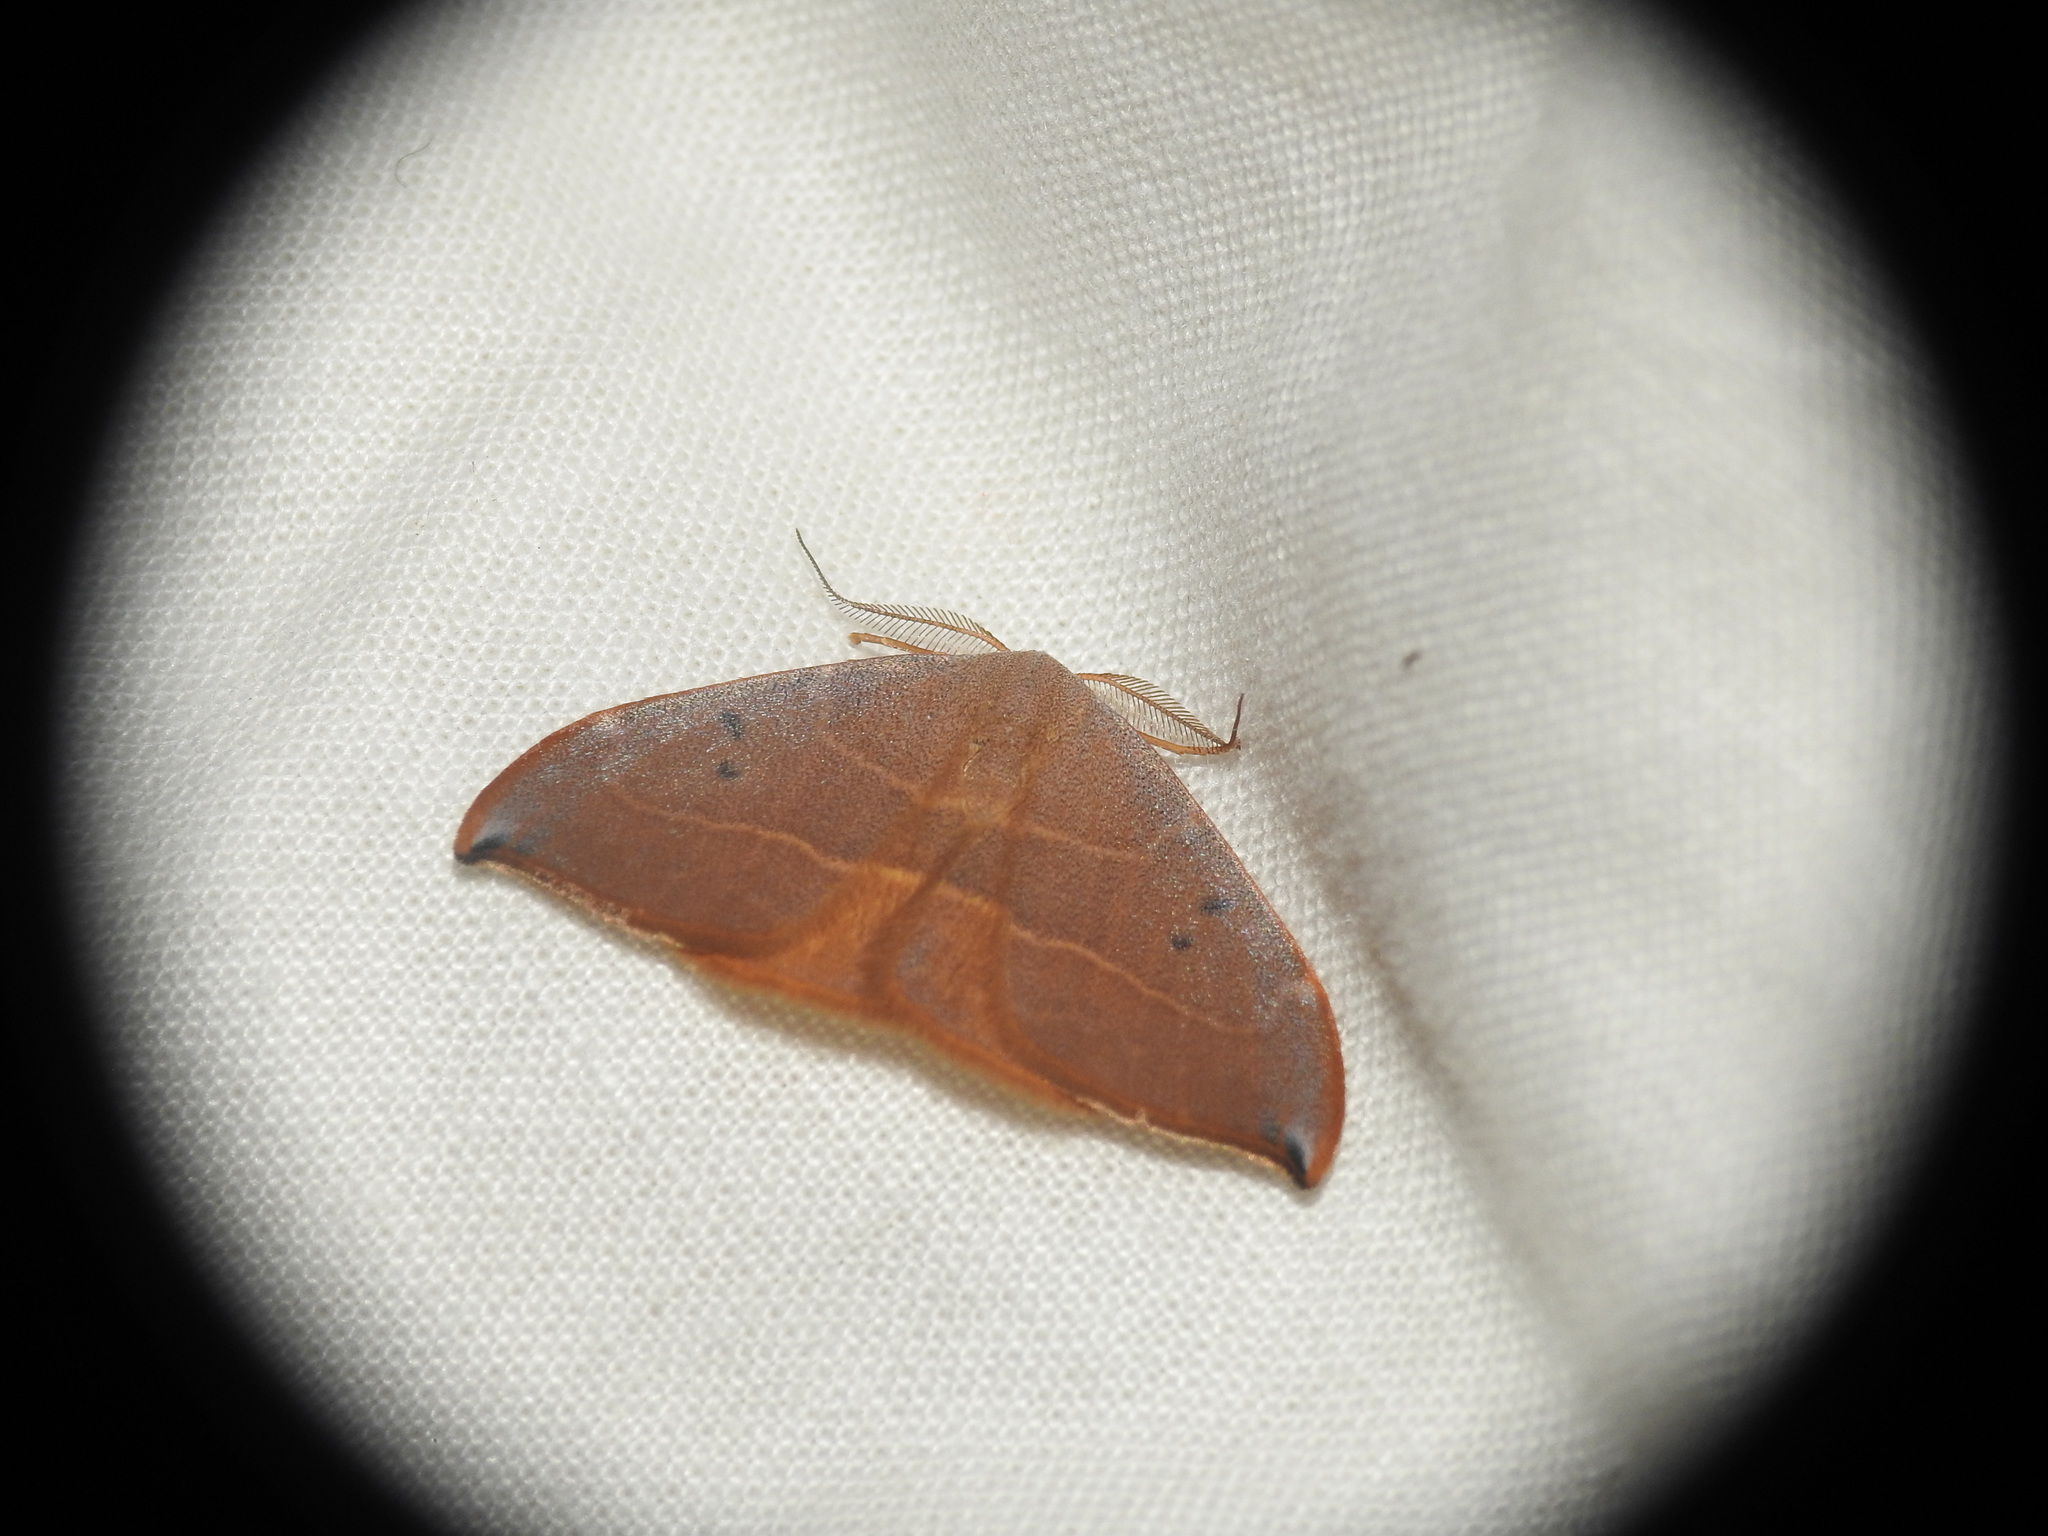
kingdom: Animalia
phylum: Arthropoda
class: Insecta
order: Lepidoptera
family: Drepanidae
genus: Watsonalla
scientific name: Watsonalla uncinula
